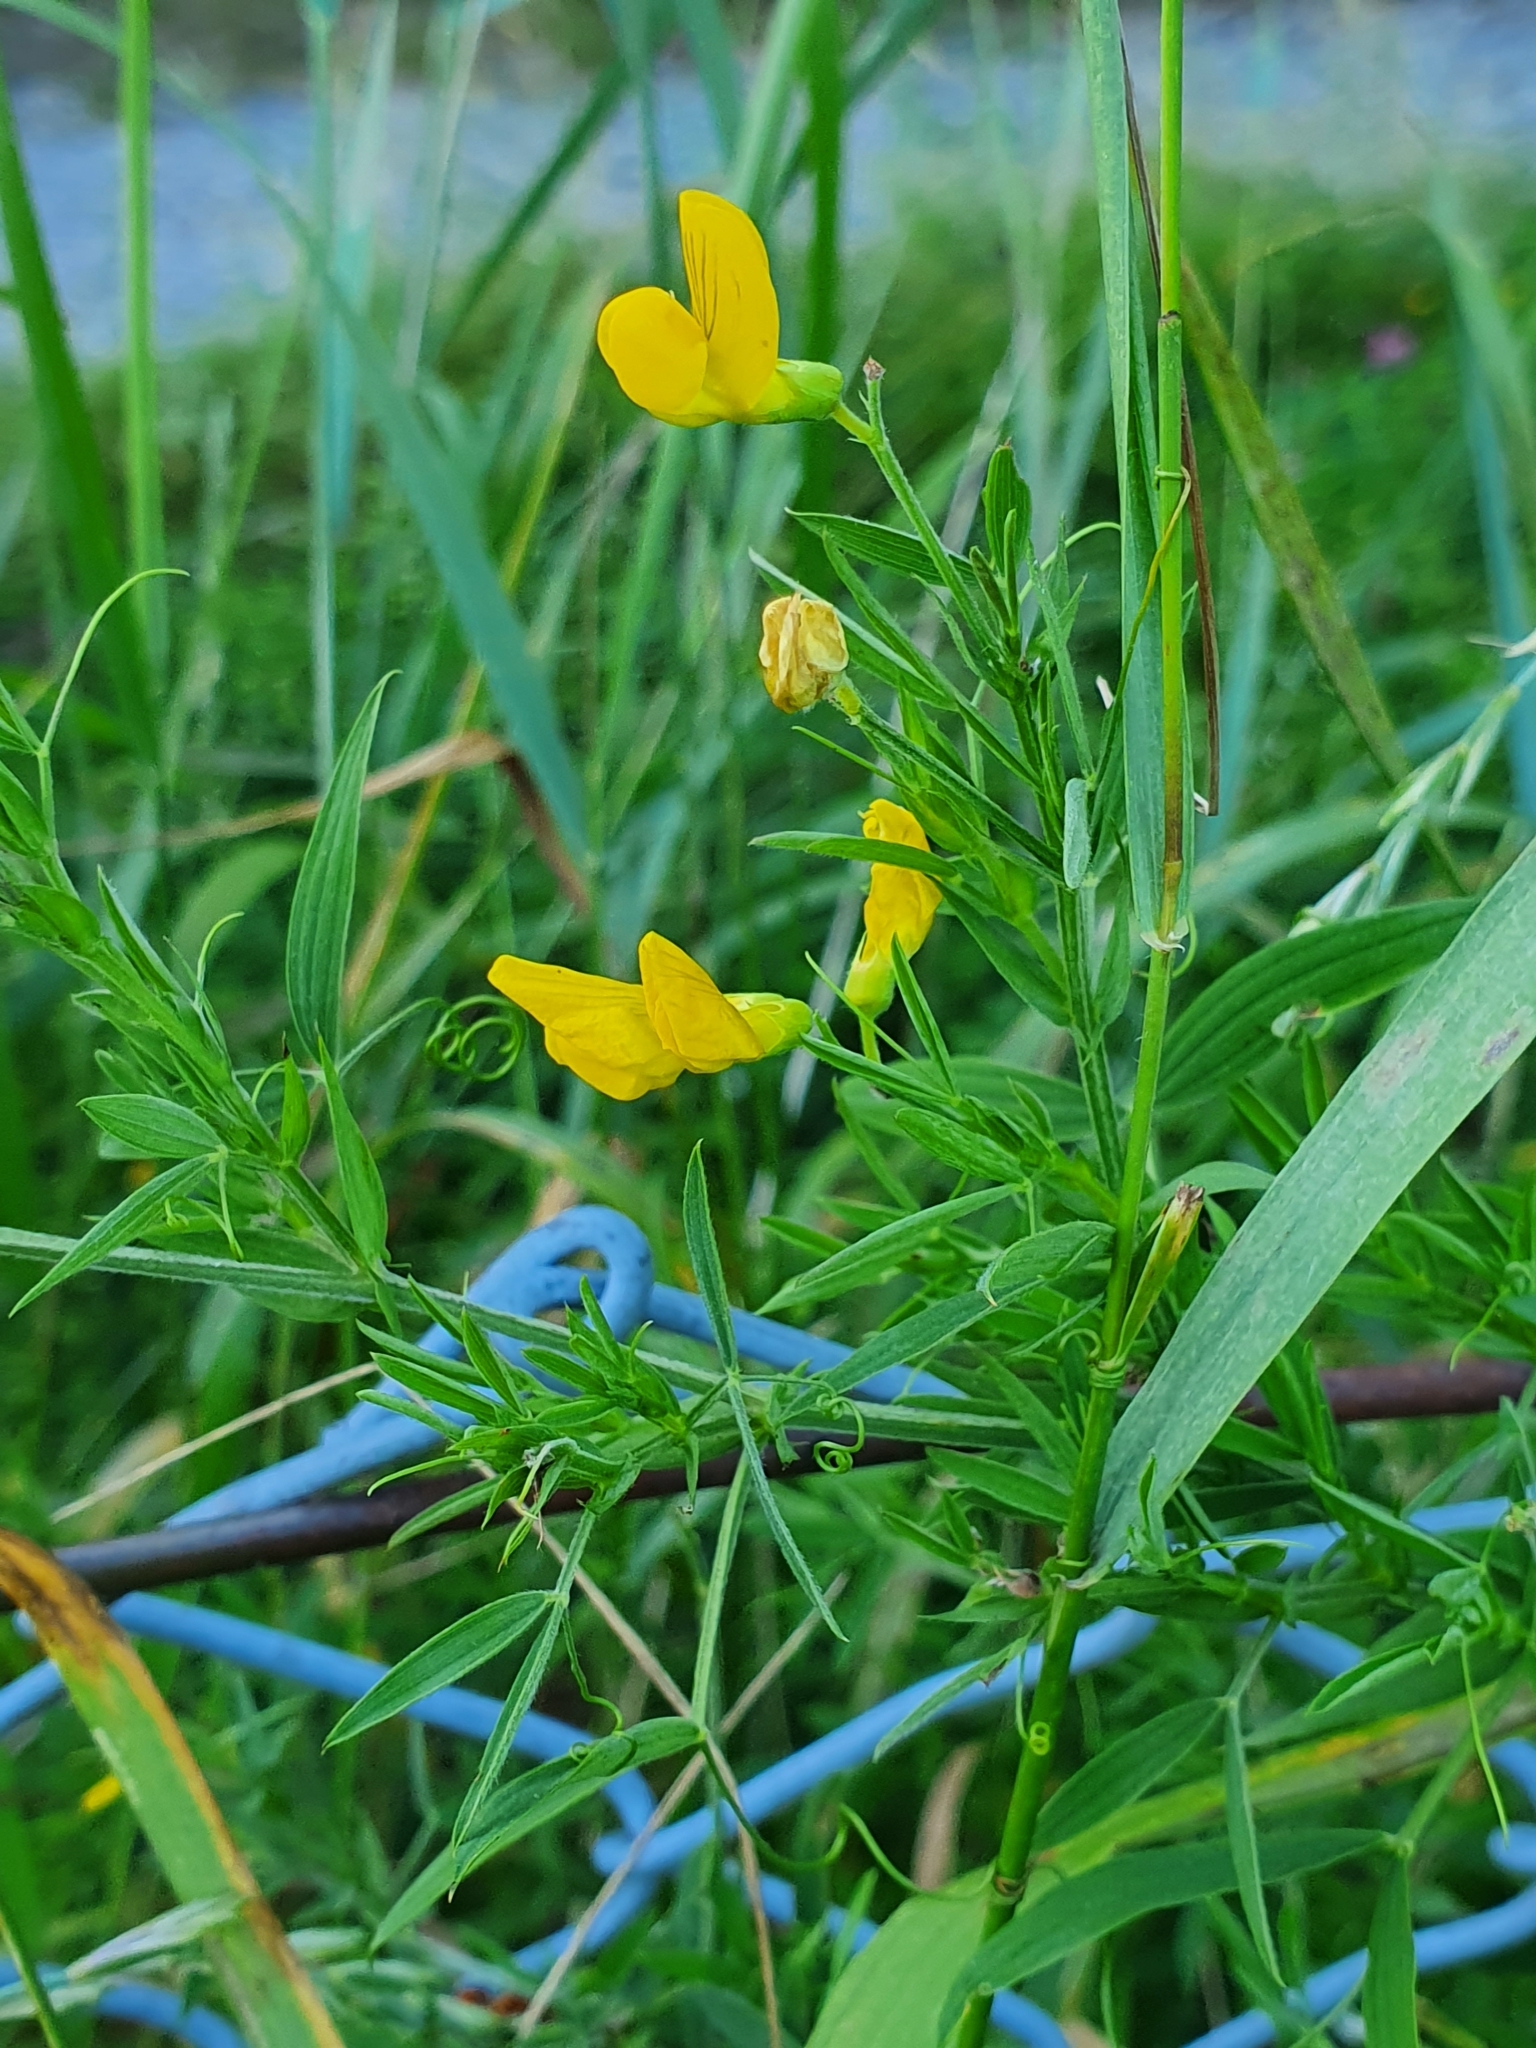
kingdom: Plantae
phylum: Tracheophyta
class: Magnoliopsida
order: Fabales
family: Fabaceae
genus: Lathyrus
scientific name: Lathyrus pratensis
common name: Meadow vetchling
